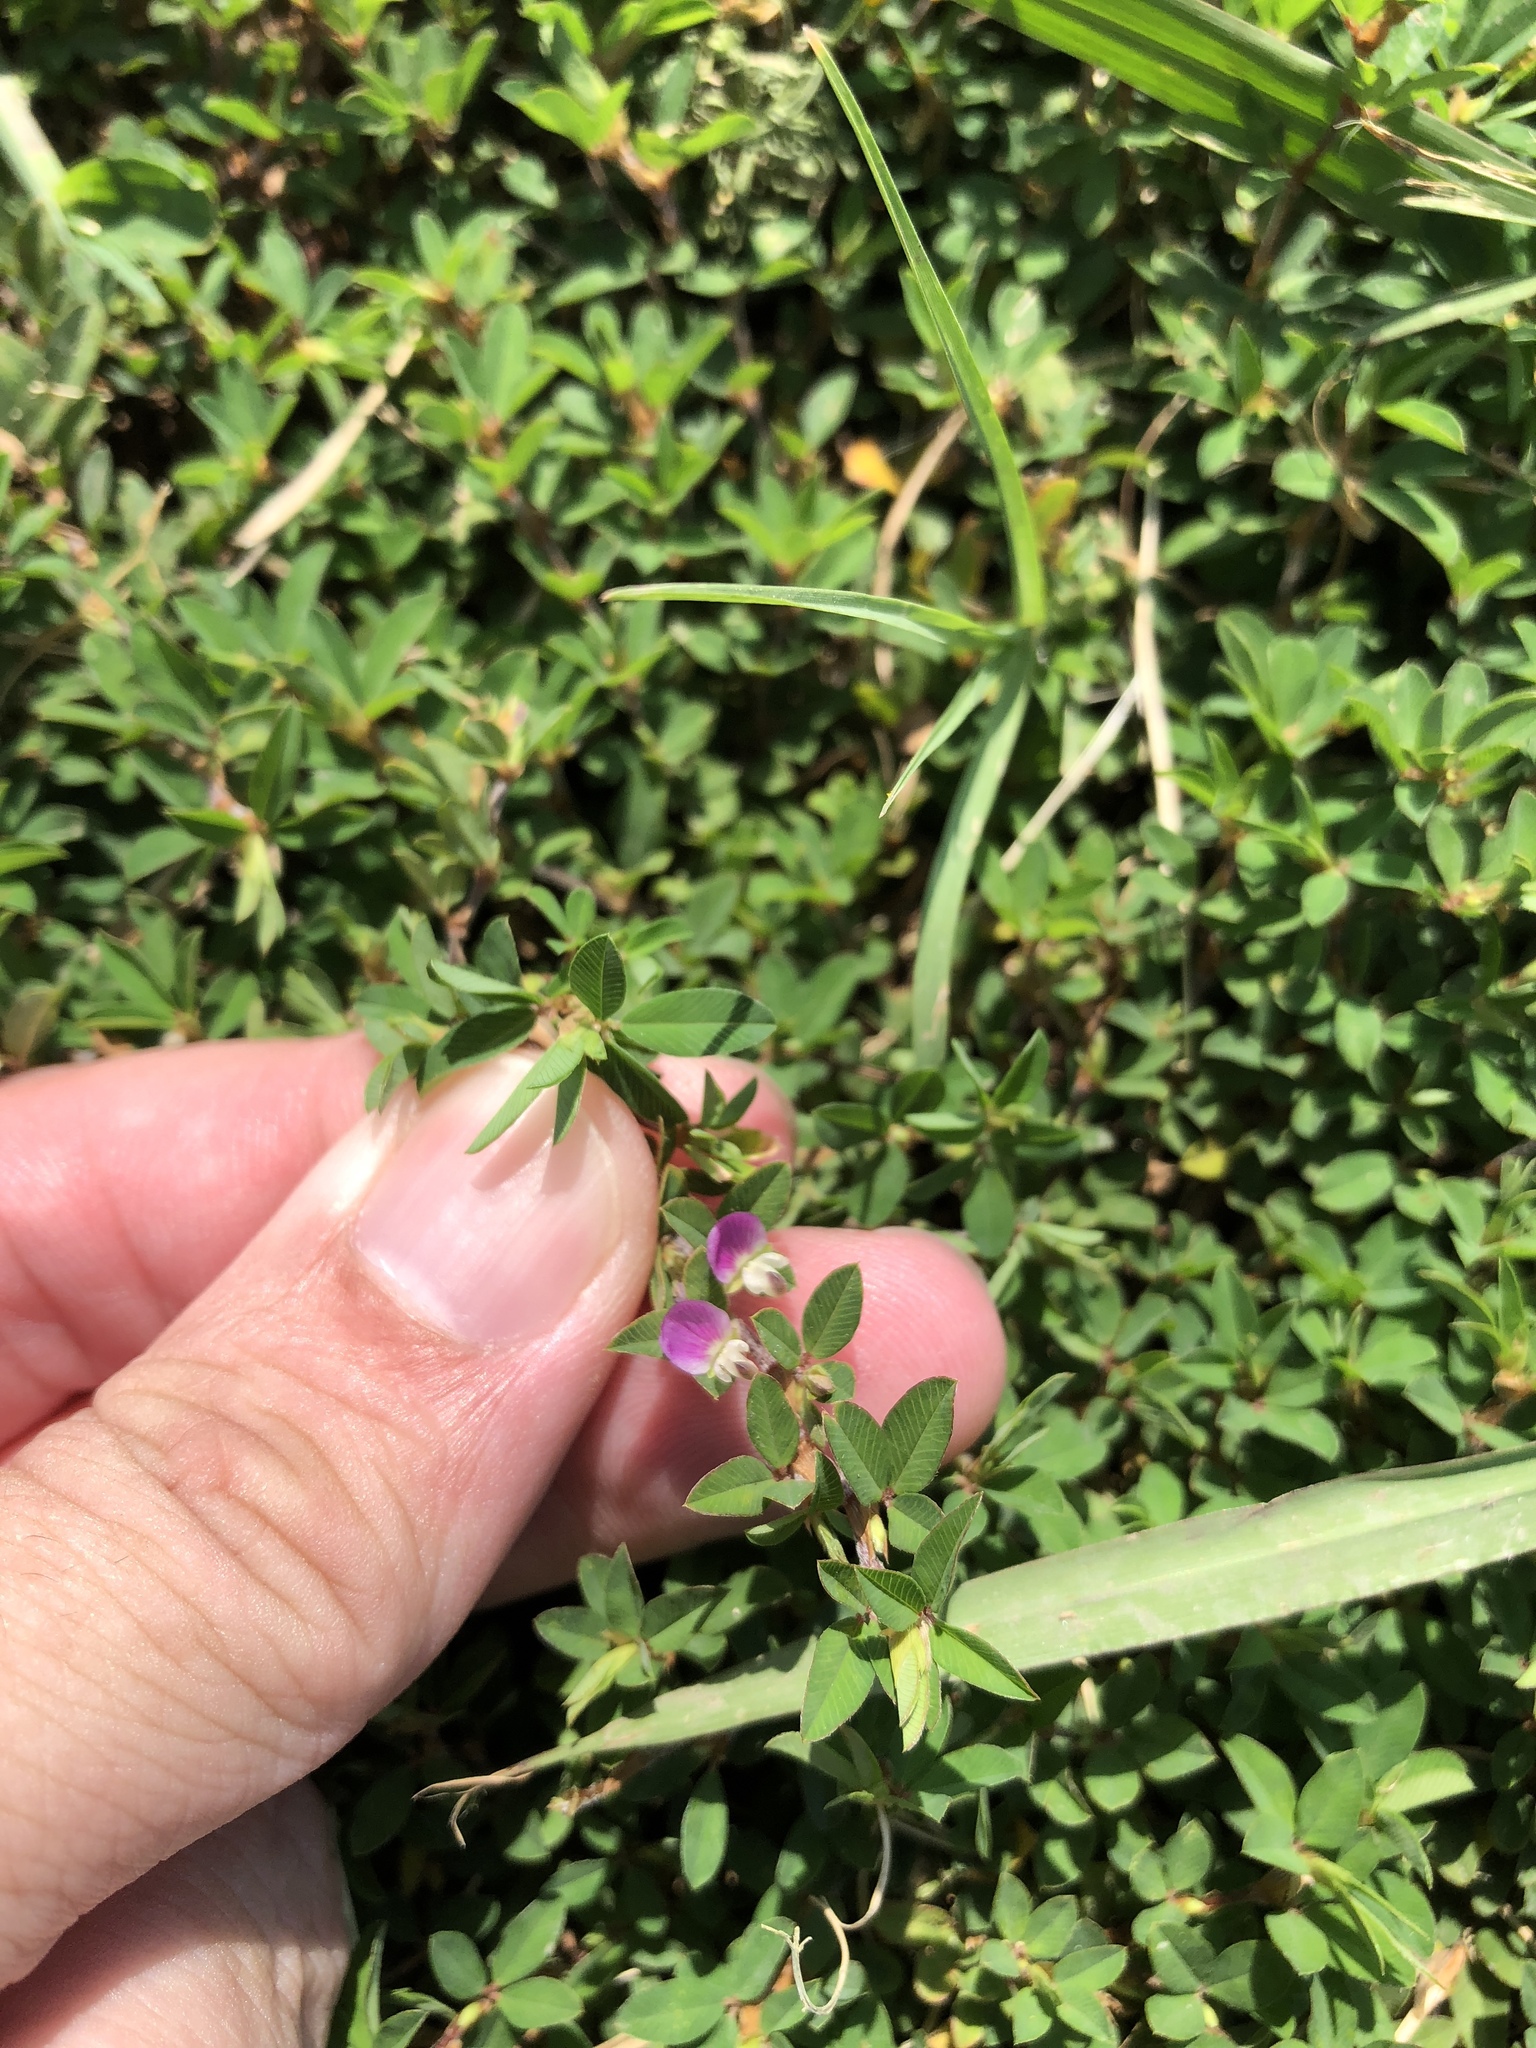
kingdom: Plantae
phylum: Tracheophyta
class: Magnoliopsida
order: Fabales
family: Fabaceae
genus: Kummerowia
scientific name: Kummerowia striata
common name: Japanese clover
